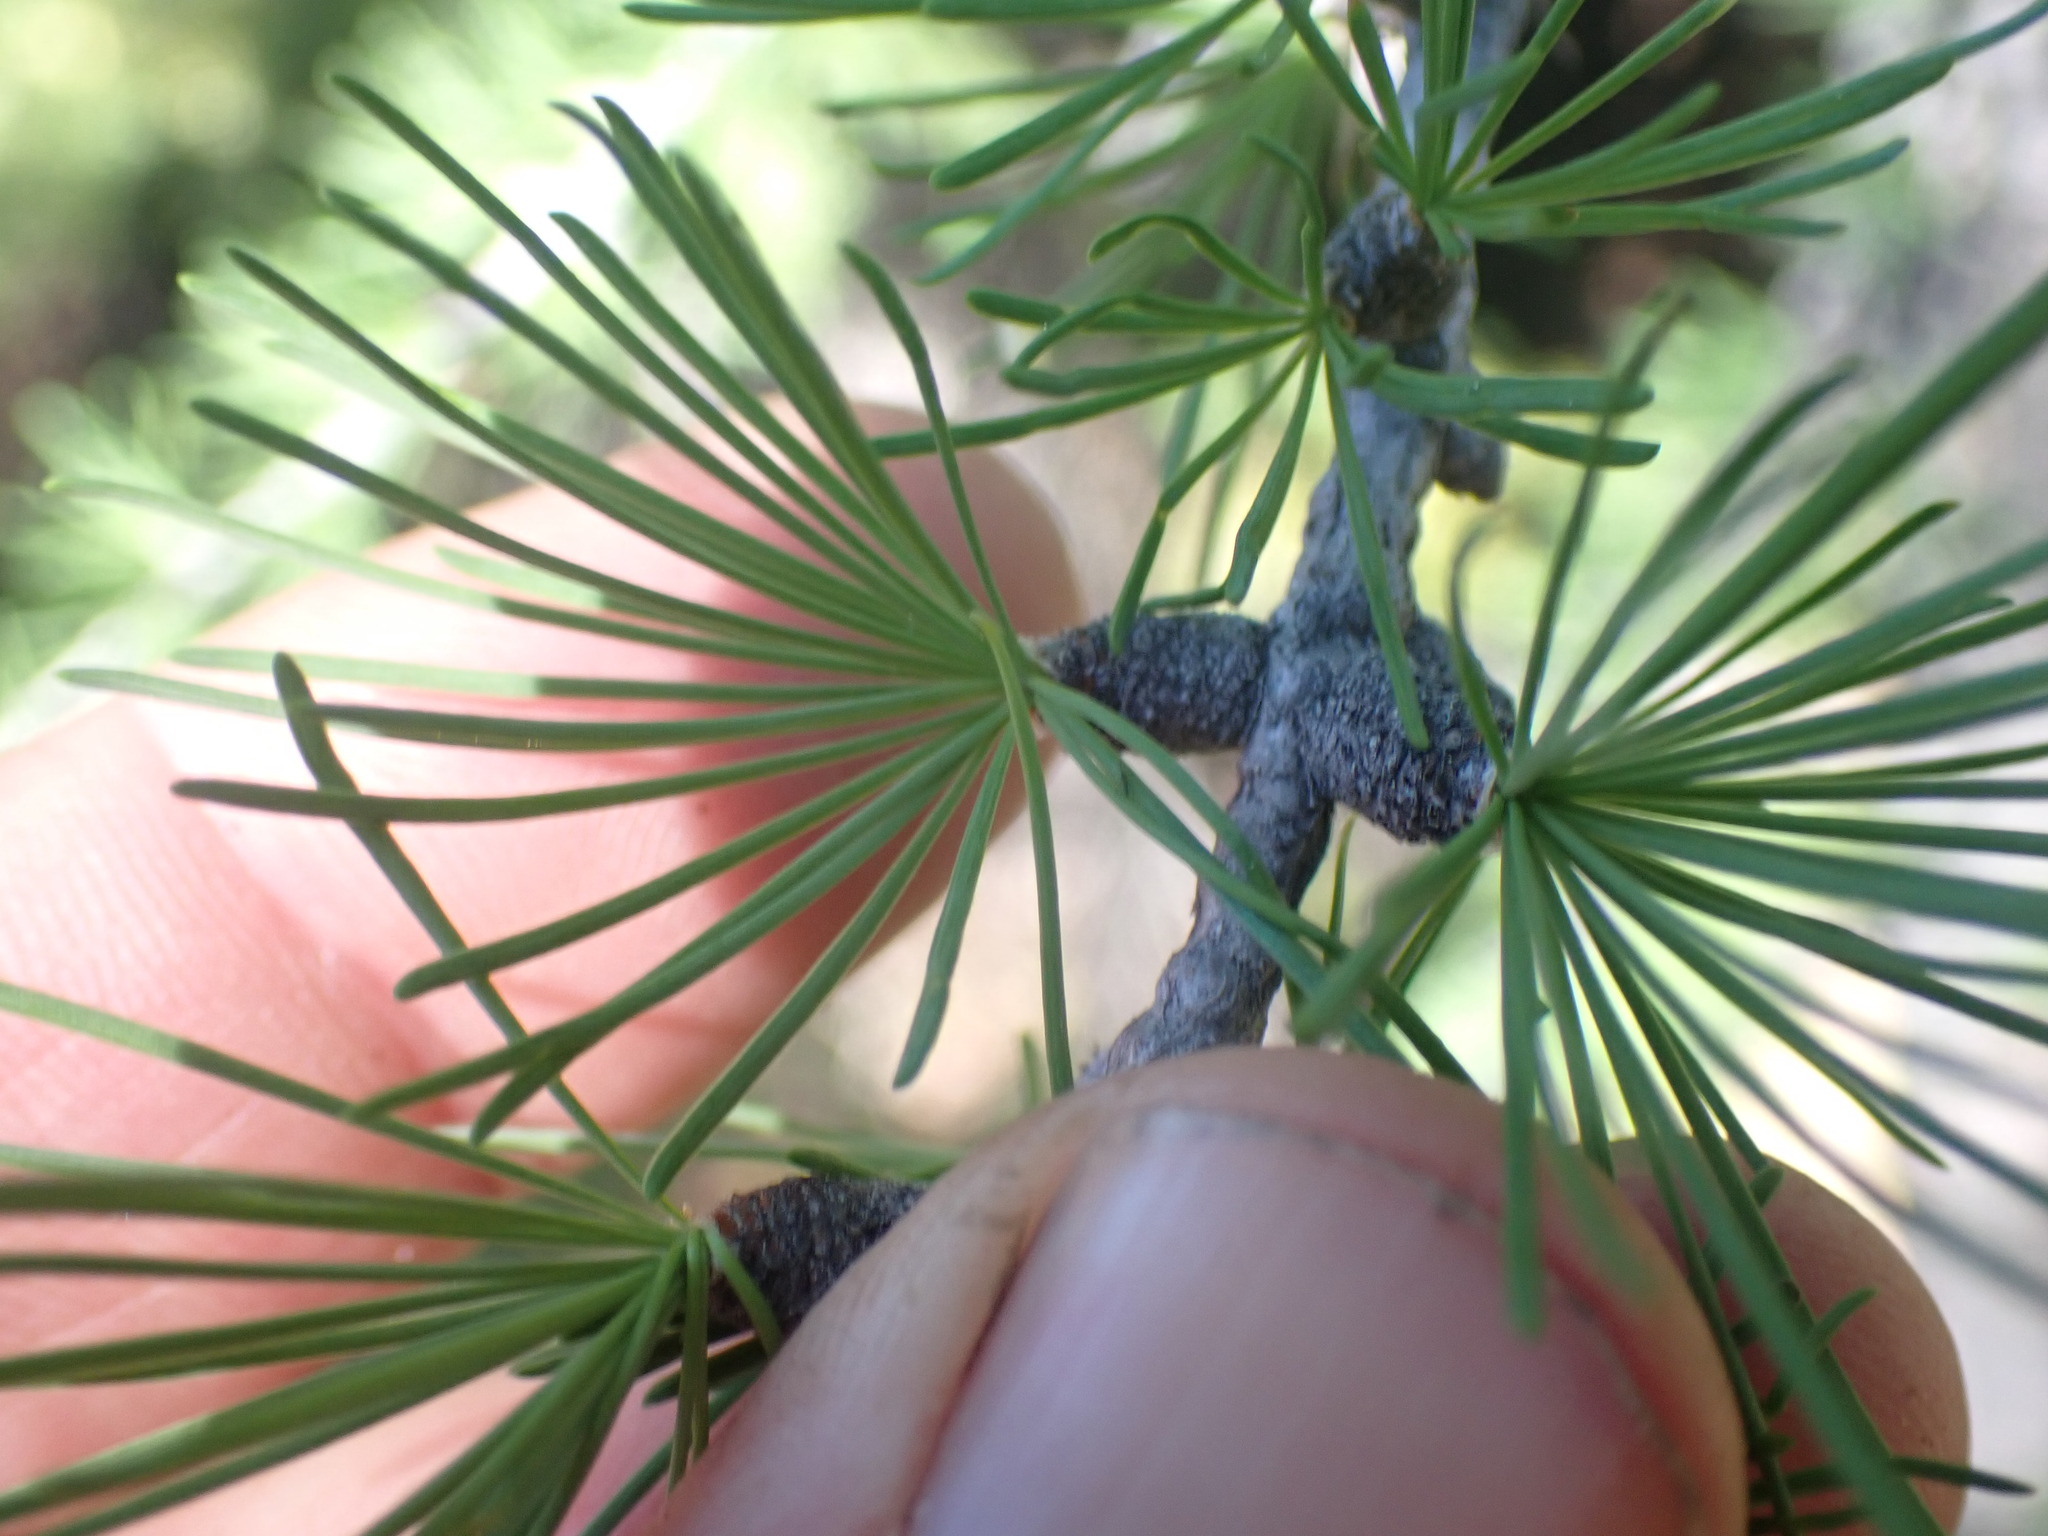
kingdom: Plantae
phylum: Tracheophyta
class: Pinopsida
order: Pinales
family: Pinaceae
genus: Larix
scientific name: Larix lyallii
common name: Alpine larch
